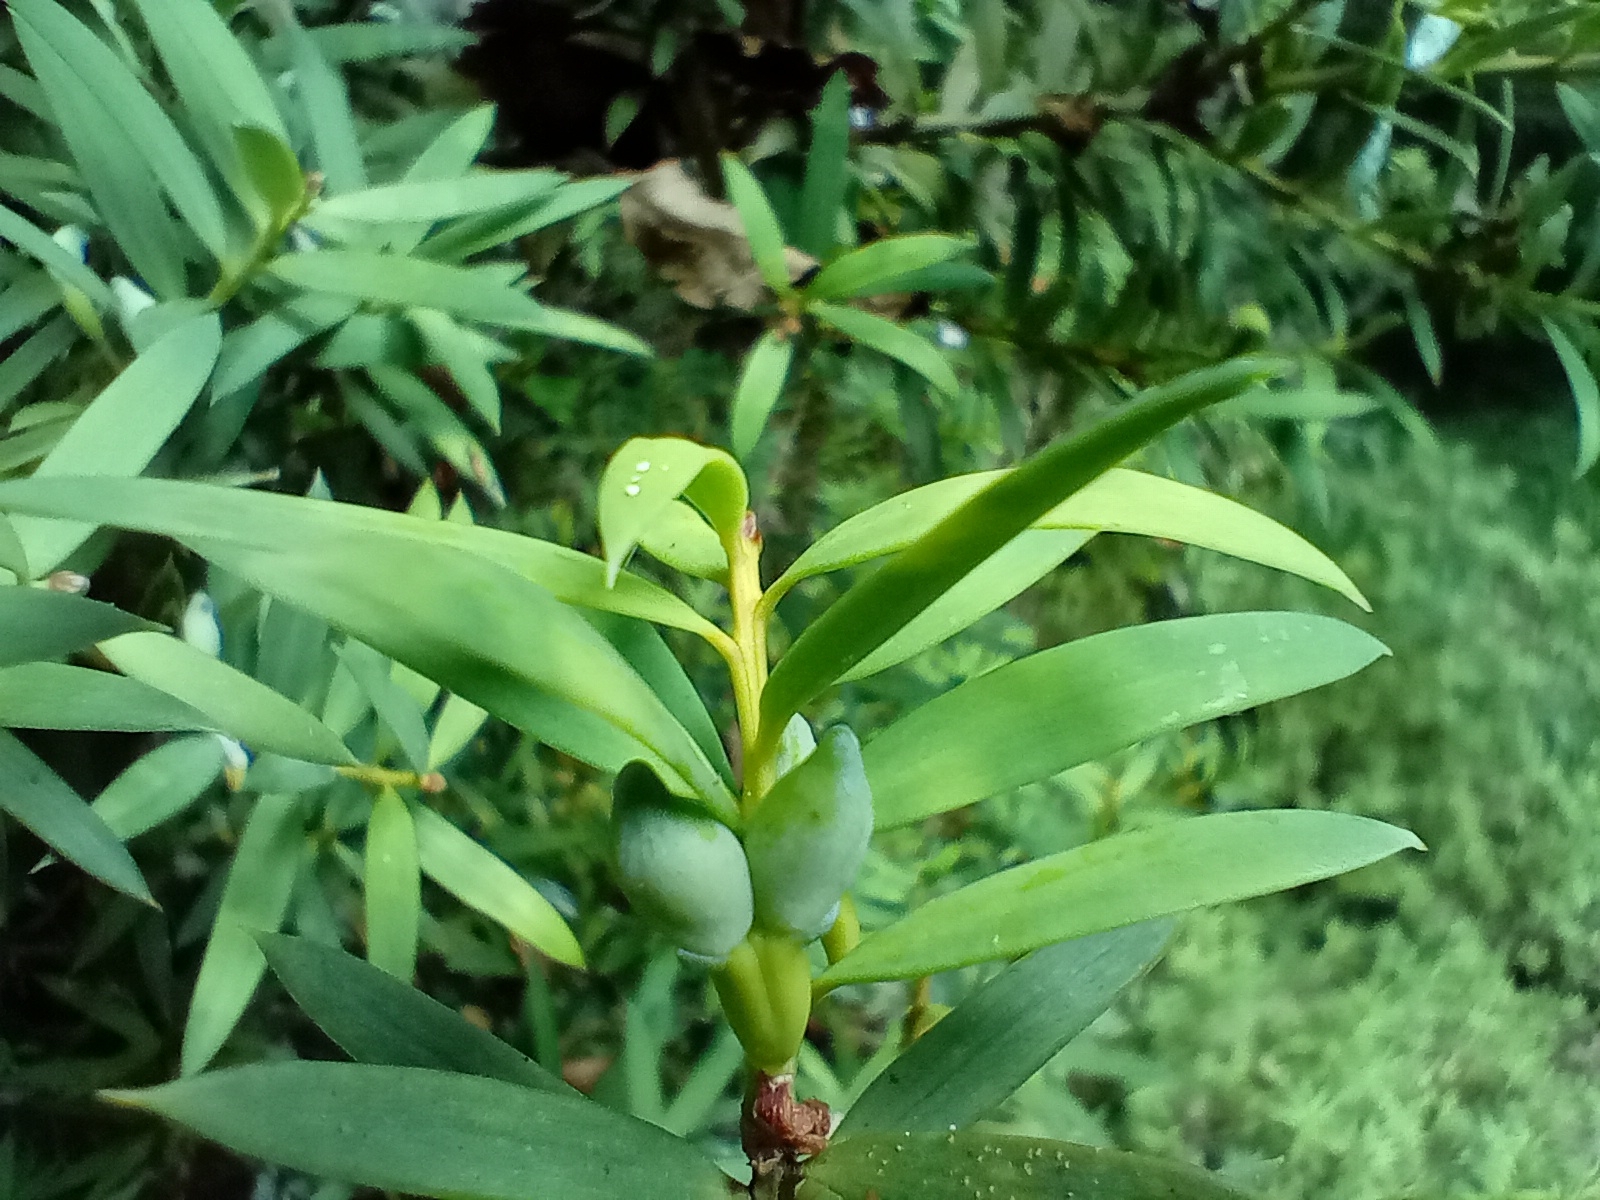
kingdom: Plantae
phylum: Tracheophyta
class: Pinopsida
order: Pinales
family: Podocarpaceae
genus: Podocarpus
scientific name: Podocarpus laetus
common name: Hall's totara
